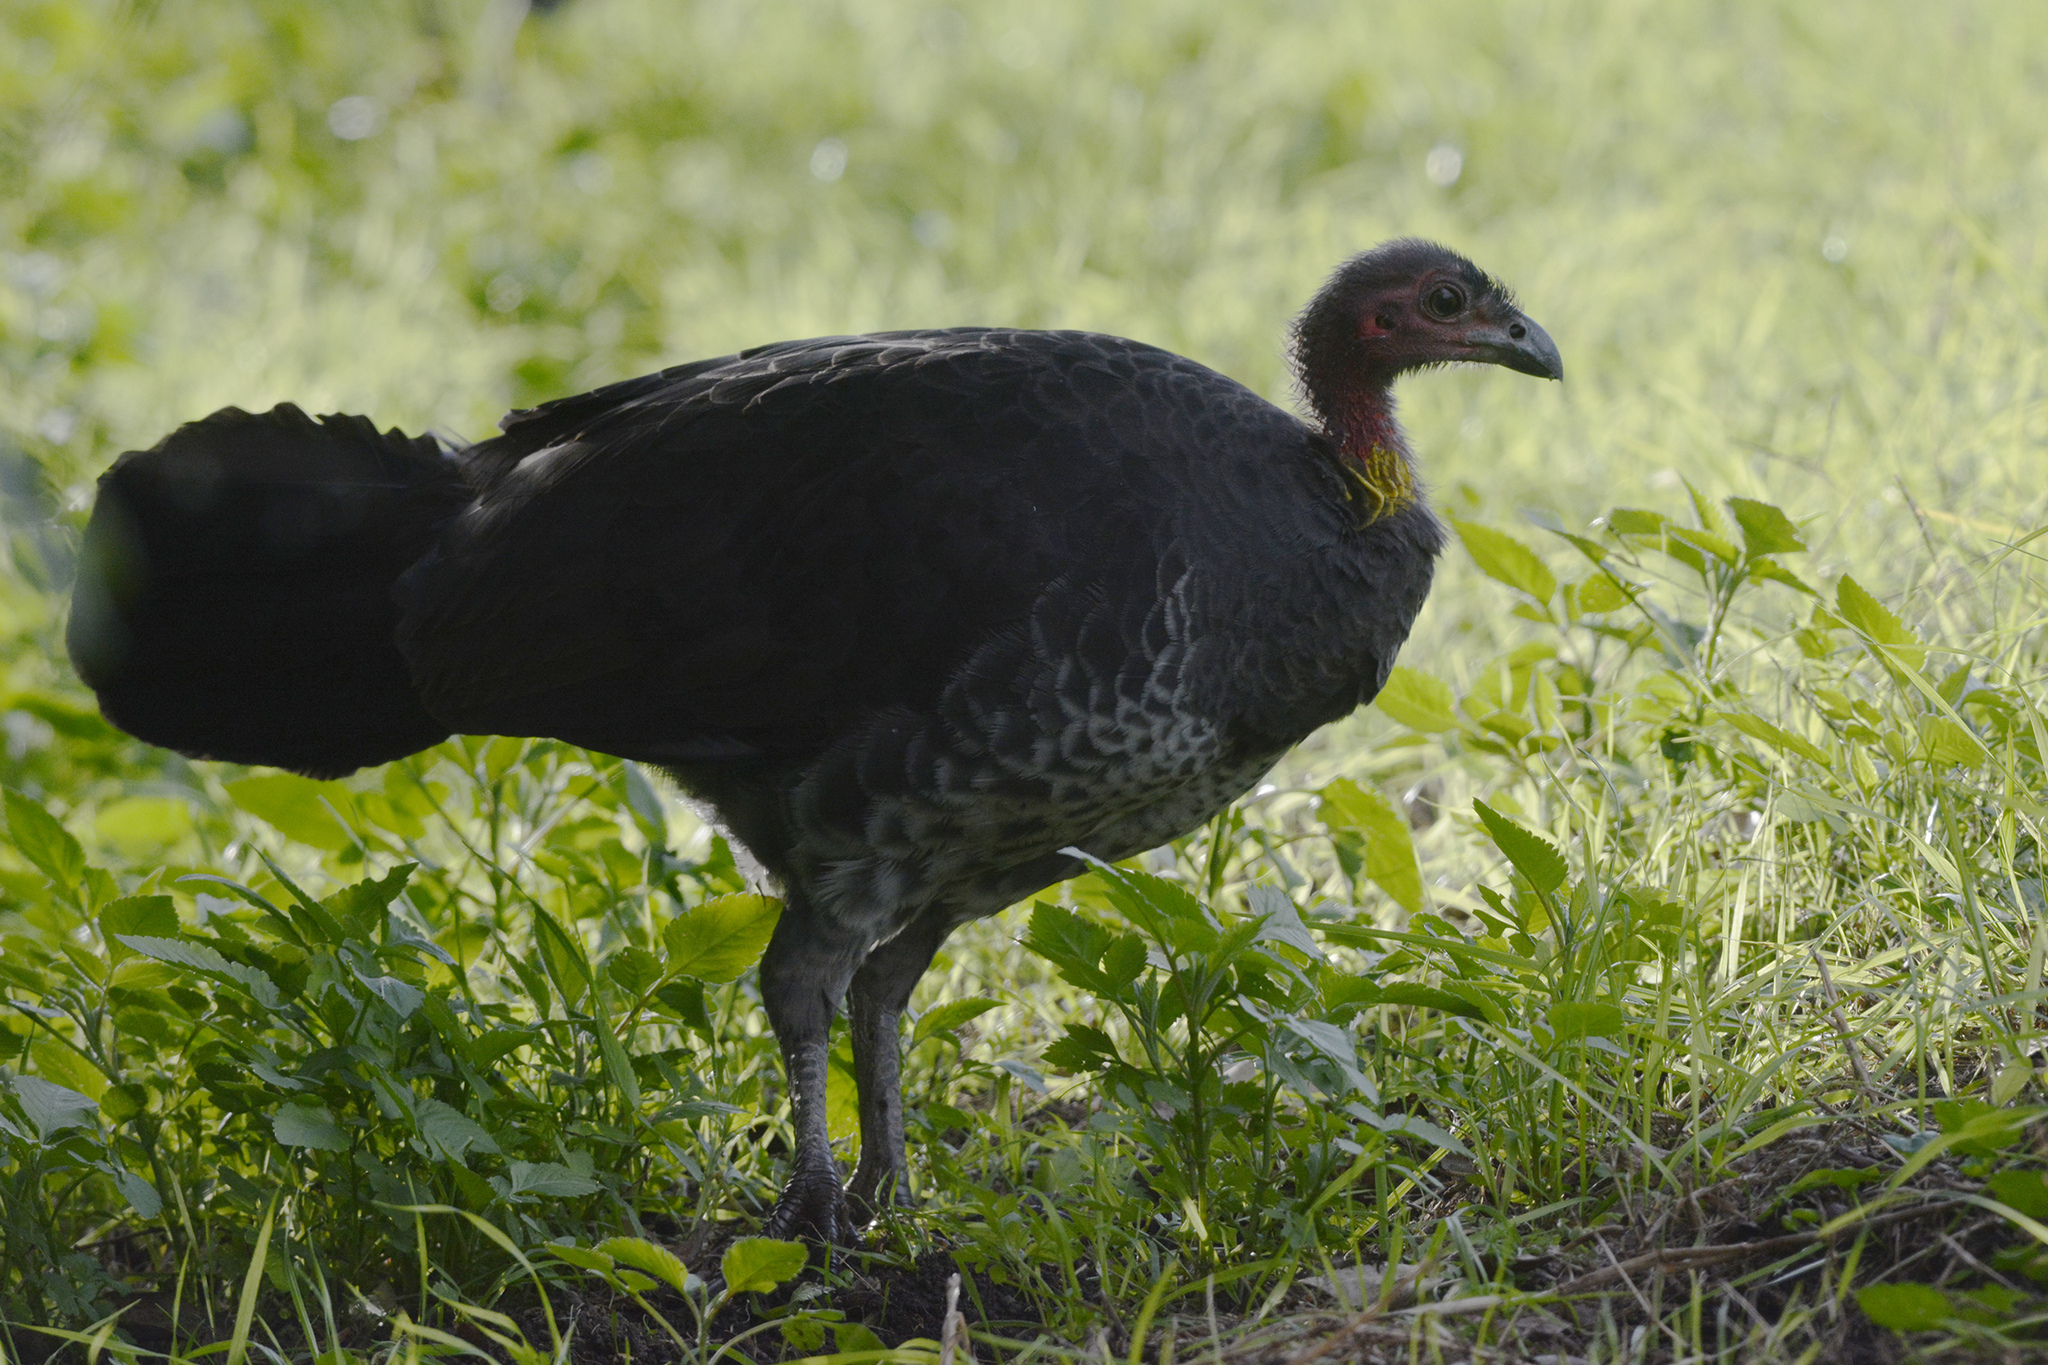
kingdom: Animalia
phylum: Chordata
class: Aves
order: Galliformes
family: Megapodiidae
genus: Alectura
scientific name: Alectura lathami
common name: Australian brushturkey
